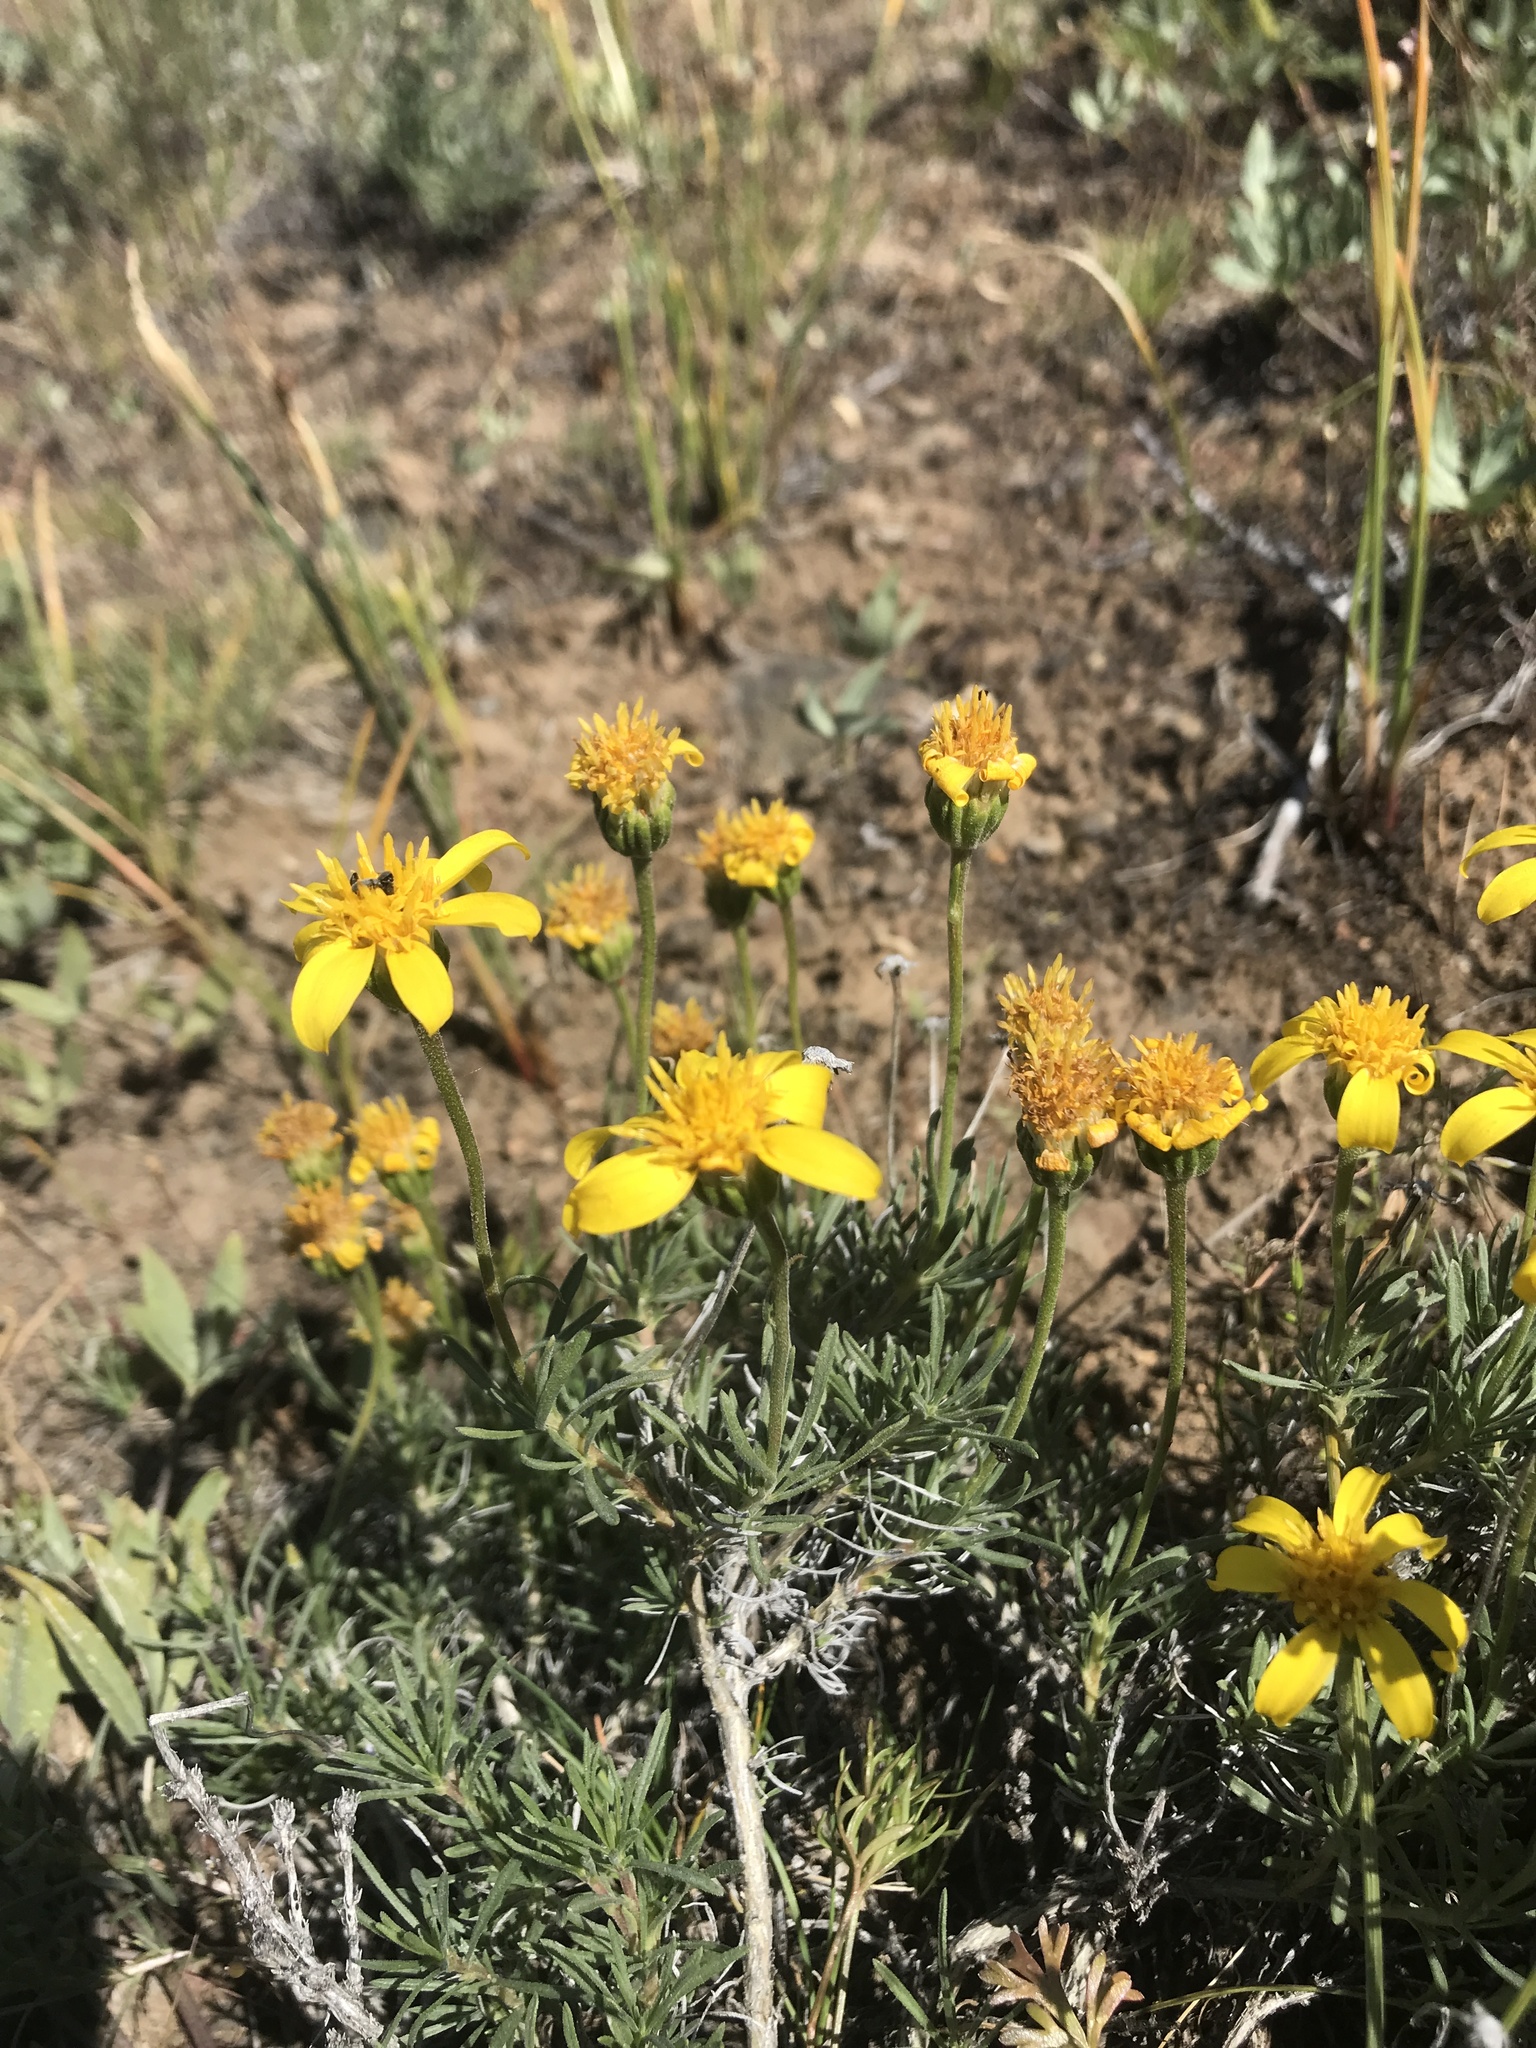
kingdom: Plantae
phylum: Tracheophyta
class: Magnoliopsida
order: Asterales
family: Asteraceae
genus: Nestotus
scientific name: Nestotus stenophyllus
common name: Narrow-leaf mock goldenweed
